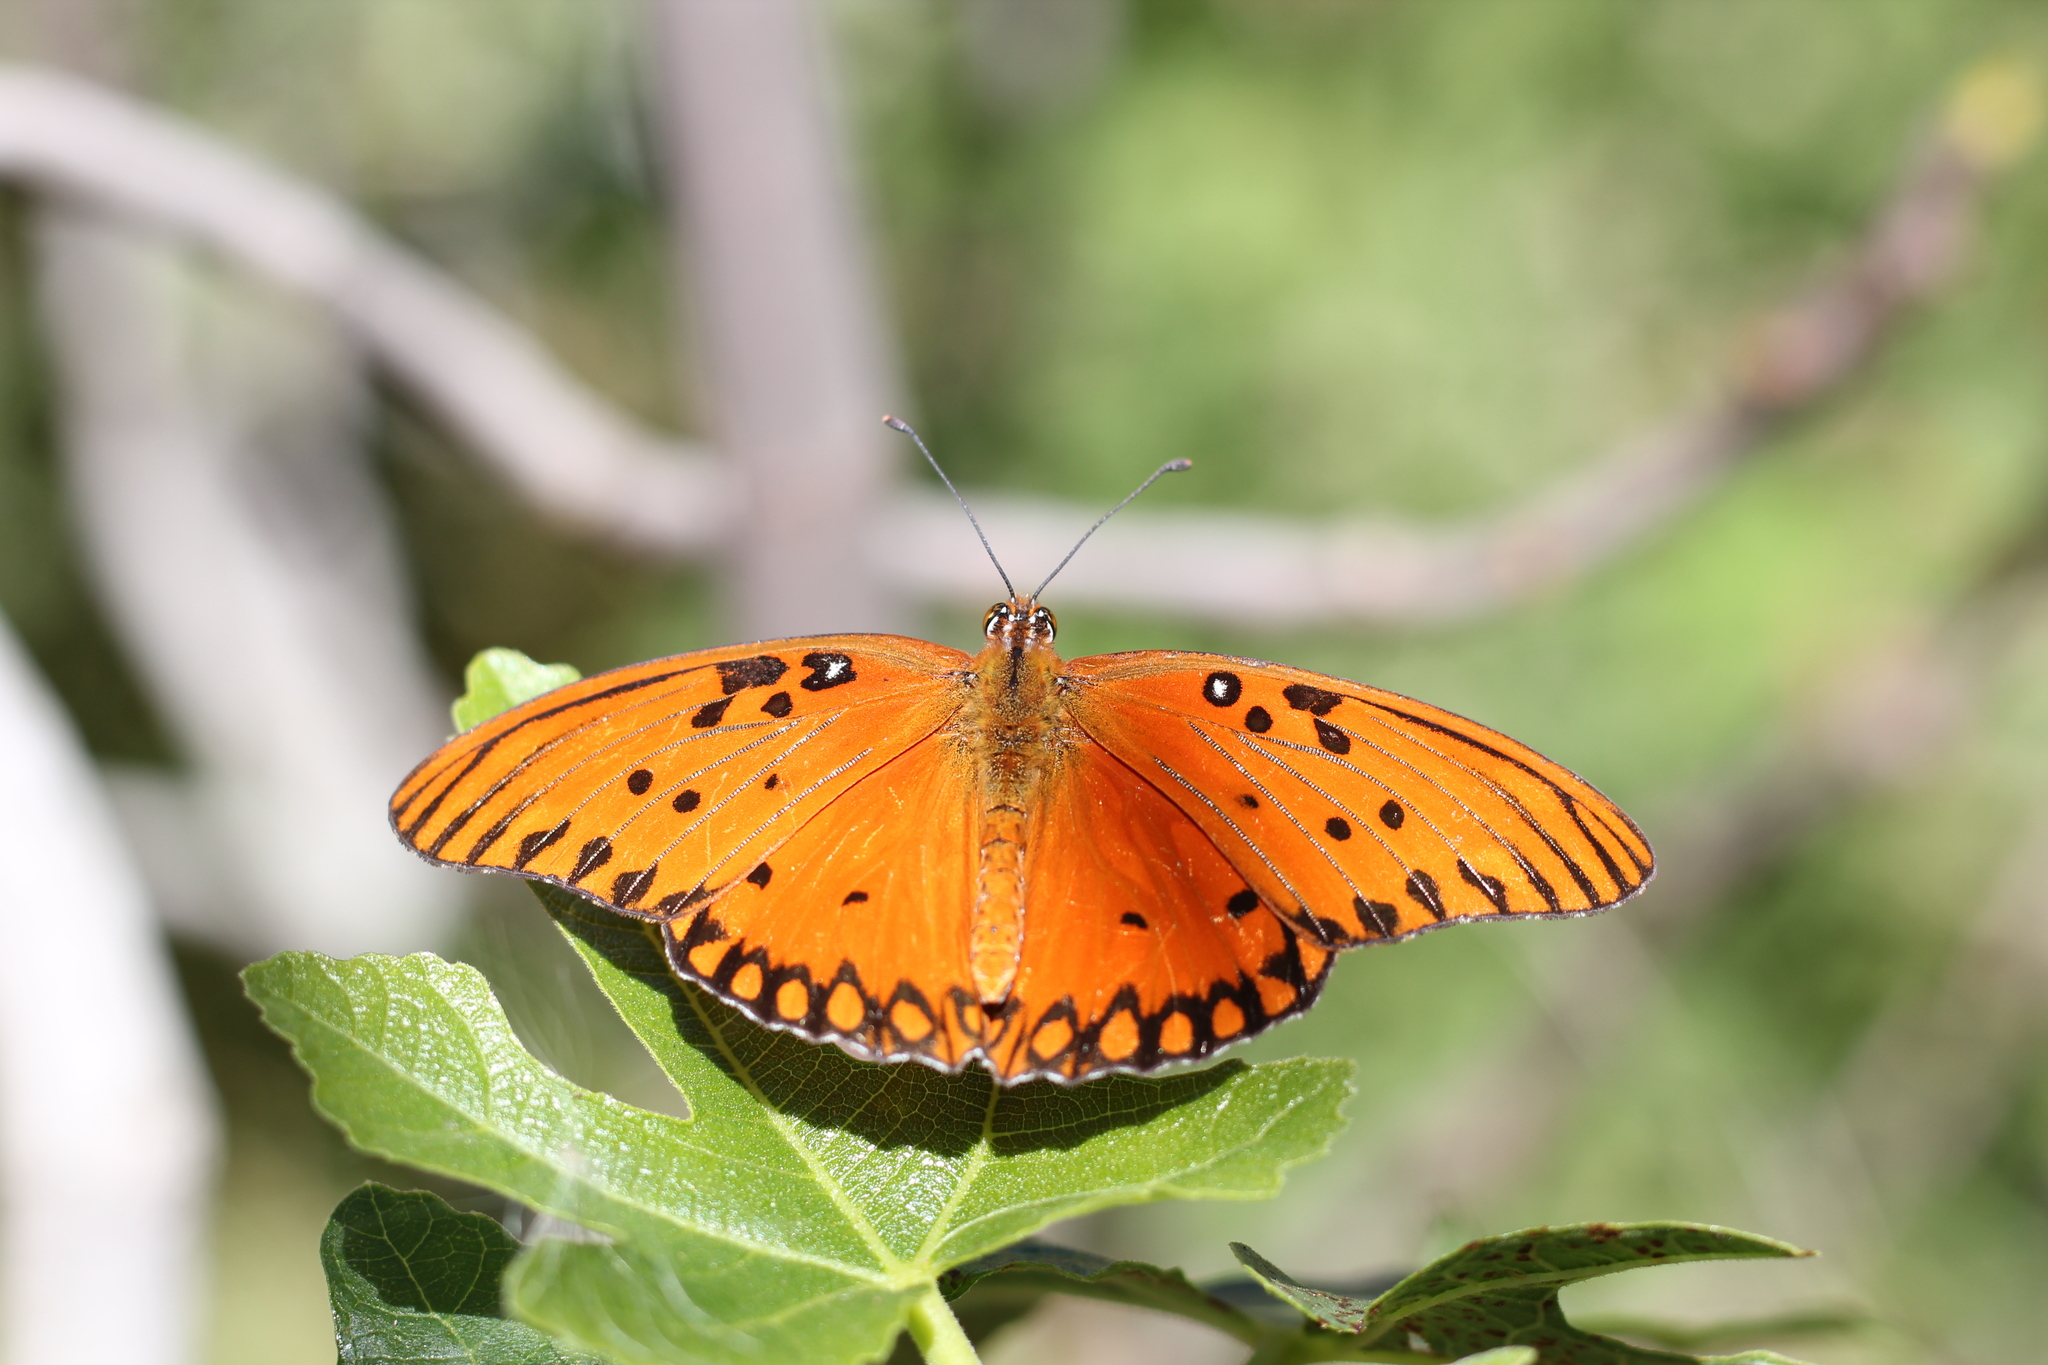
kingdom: Animalia
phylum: Arthropoda
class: Insecta
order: Lepidoptera
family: Nymphalidae
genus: Dione
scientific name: Dione vanillae
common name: Gulf fritillary
